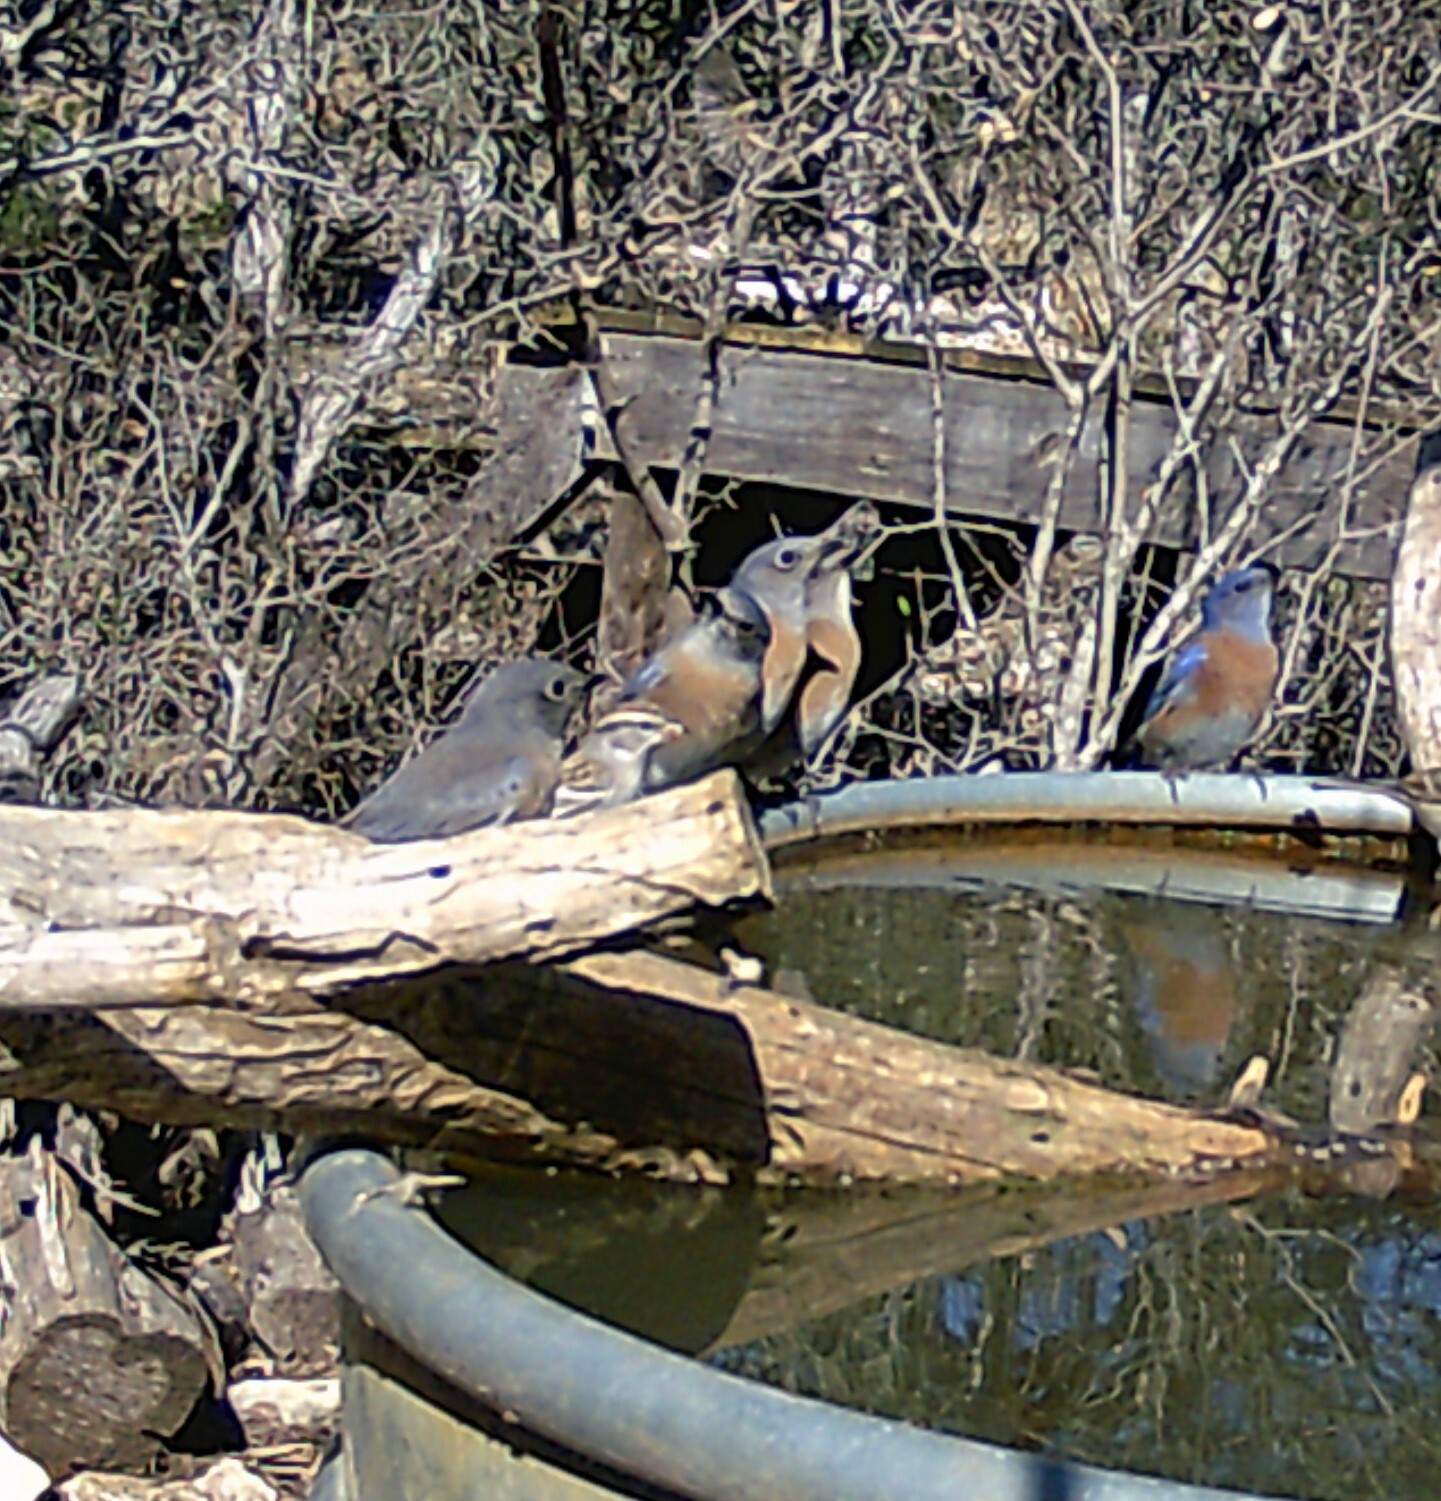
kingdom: Animalia
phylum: Chordata
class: Aves
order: Passeriformes
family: Turdidae
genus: Sialia
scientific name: Sialia mexicana
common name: Western bluebird
